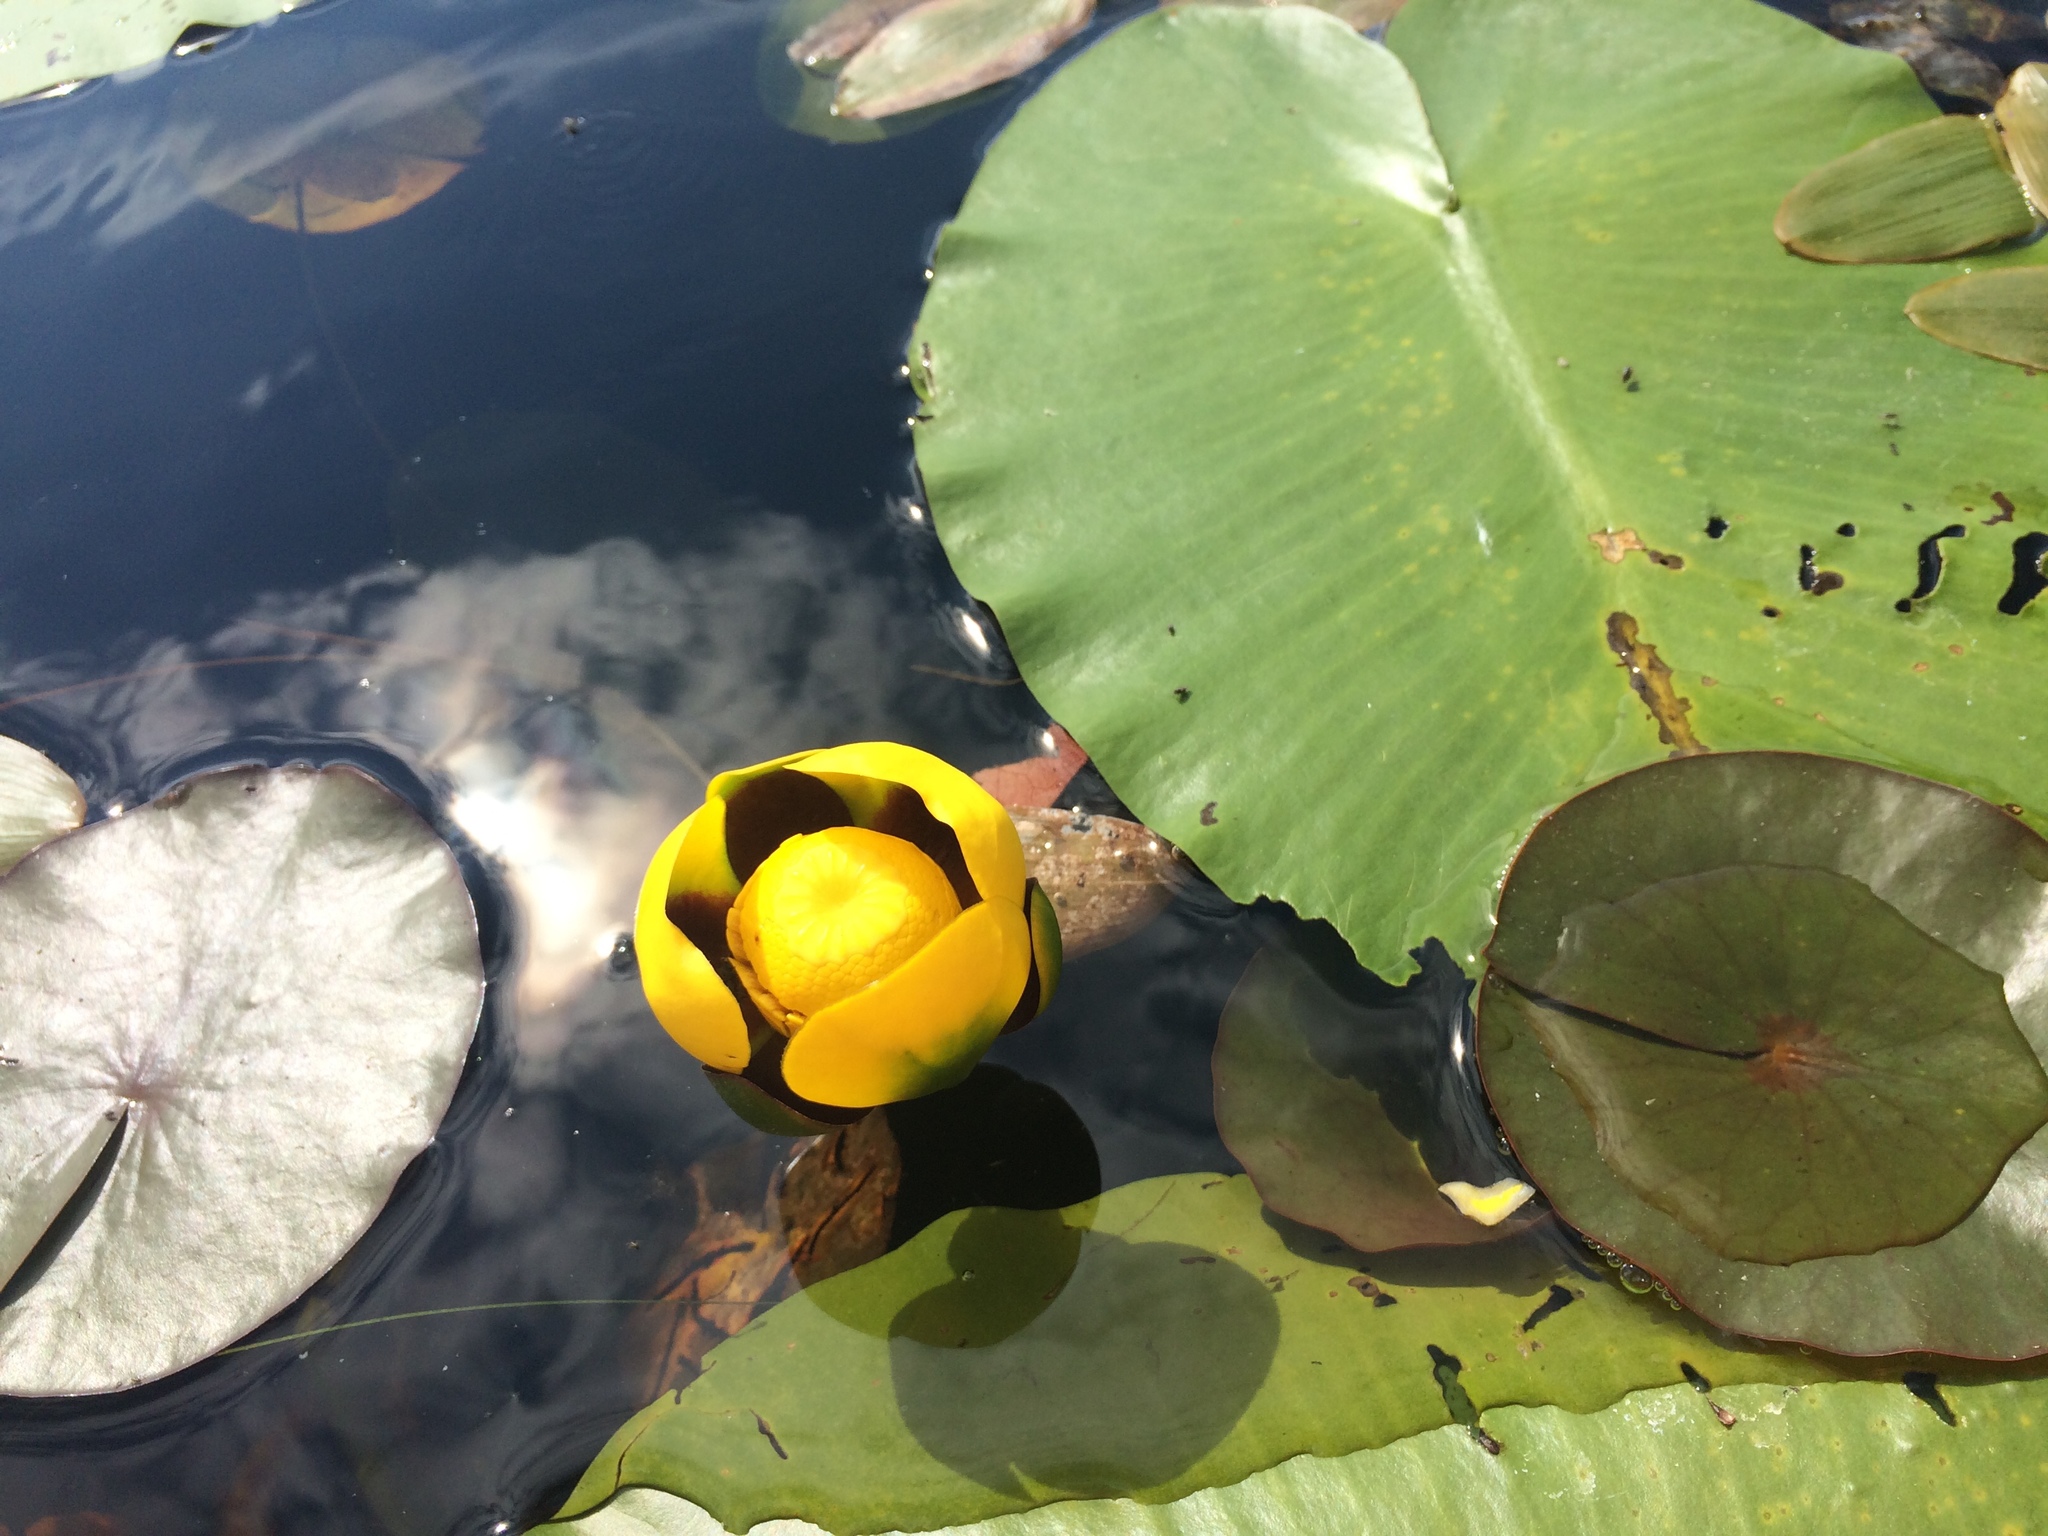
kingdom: Plantae
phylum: Tracheophyta
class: Magnoliopsida
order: Nymphaeales
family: Nymphaeaceae
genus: Nuphar
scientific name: Nuphar variegata
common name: Beaver-root
